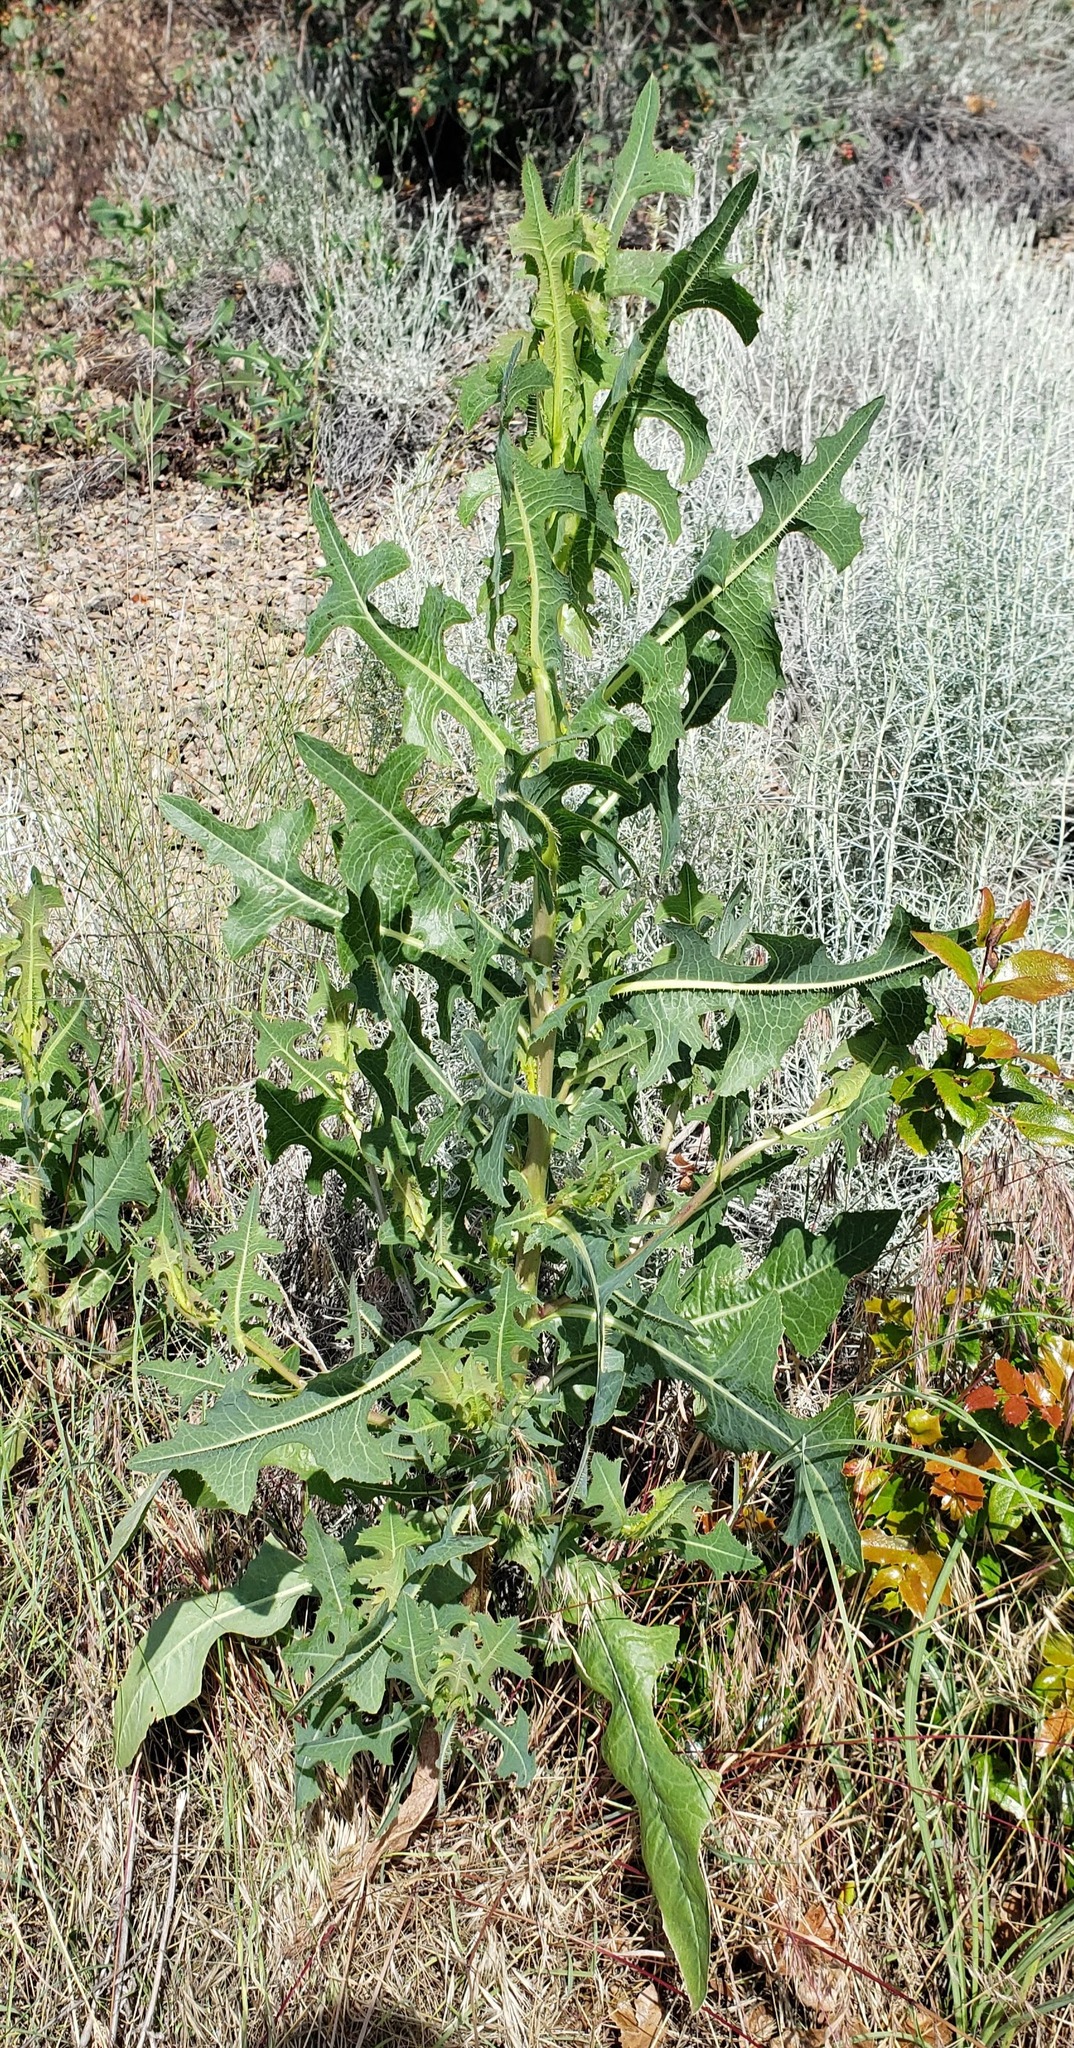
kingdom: Plantae
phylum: Tracheophyta
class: Magnoliopsida
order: Asterales
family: Asteraceae
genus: Lactuca
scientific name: Lactuca serriola
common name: Prickly lettuce
